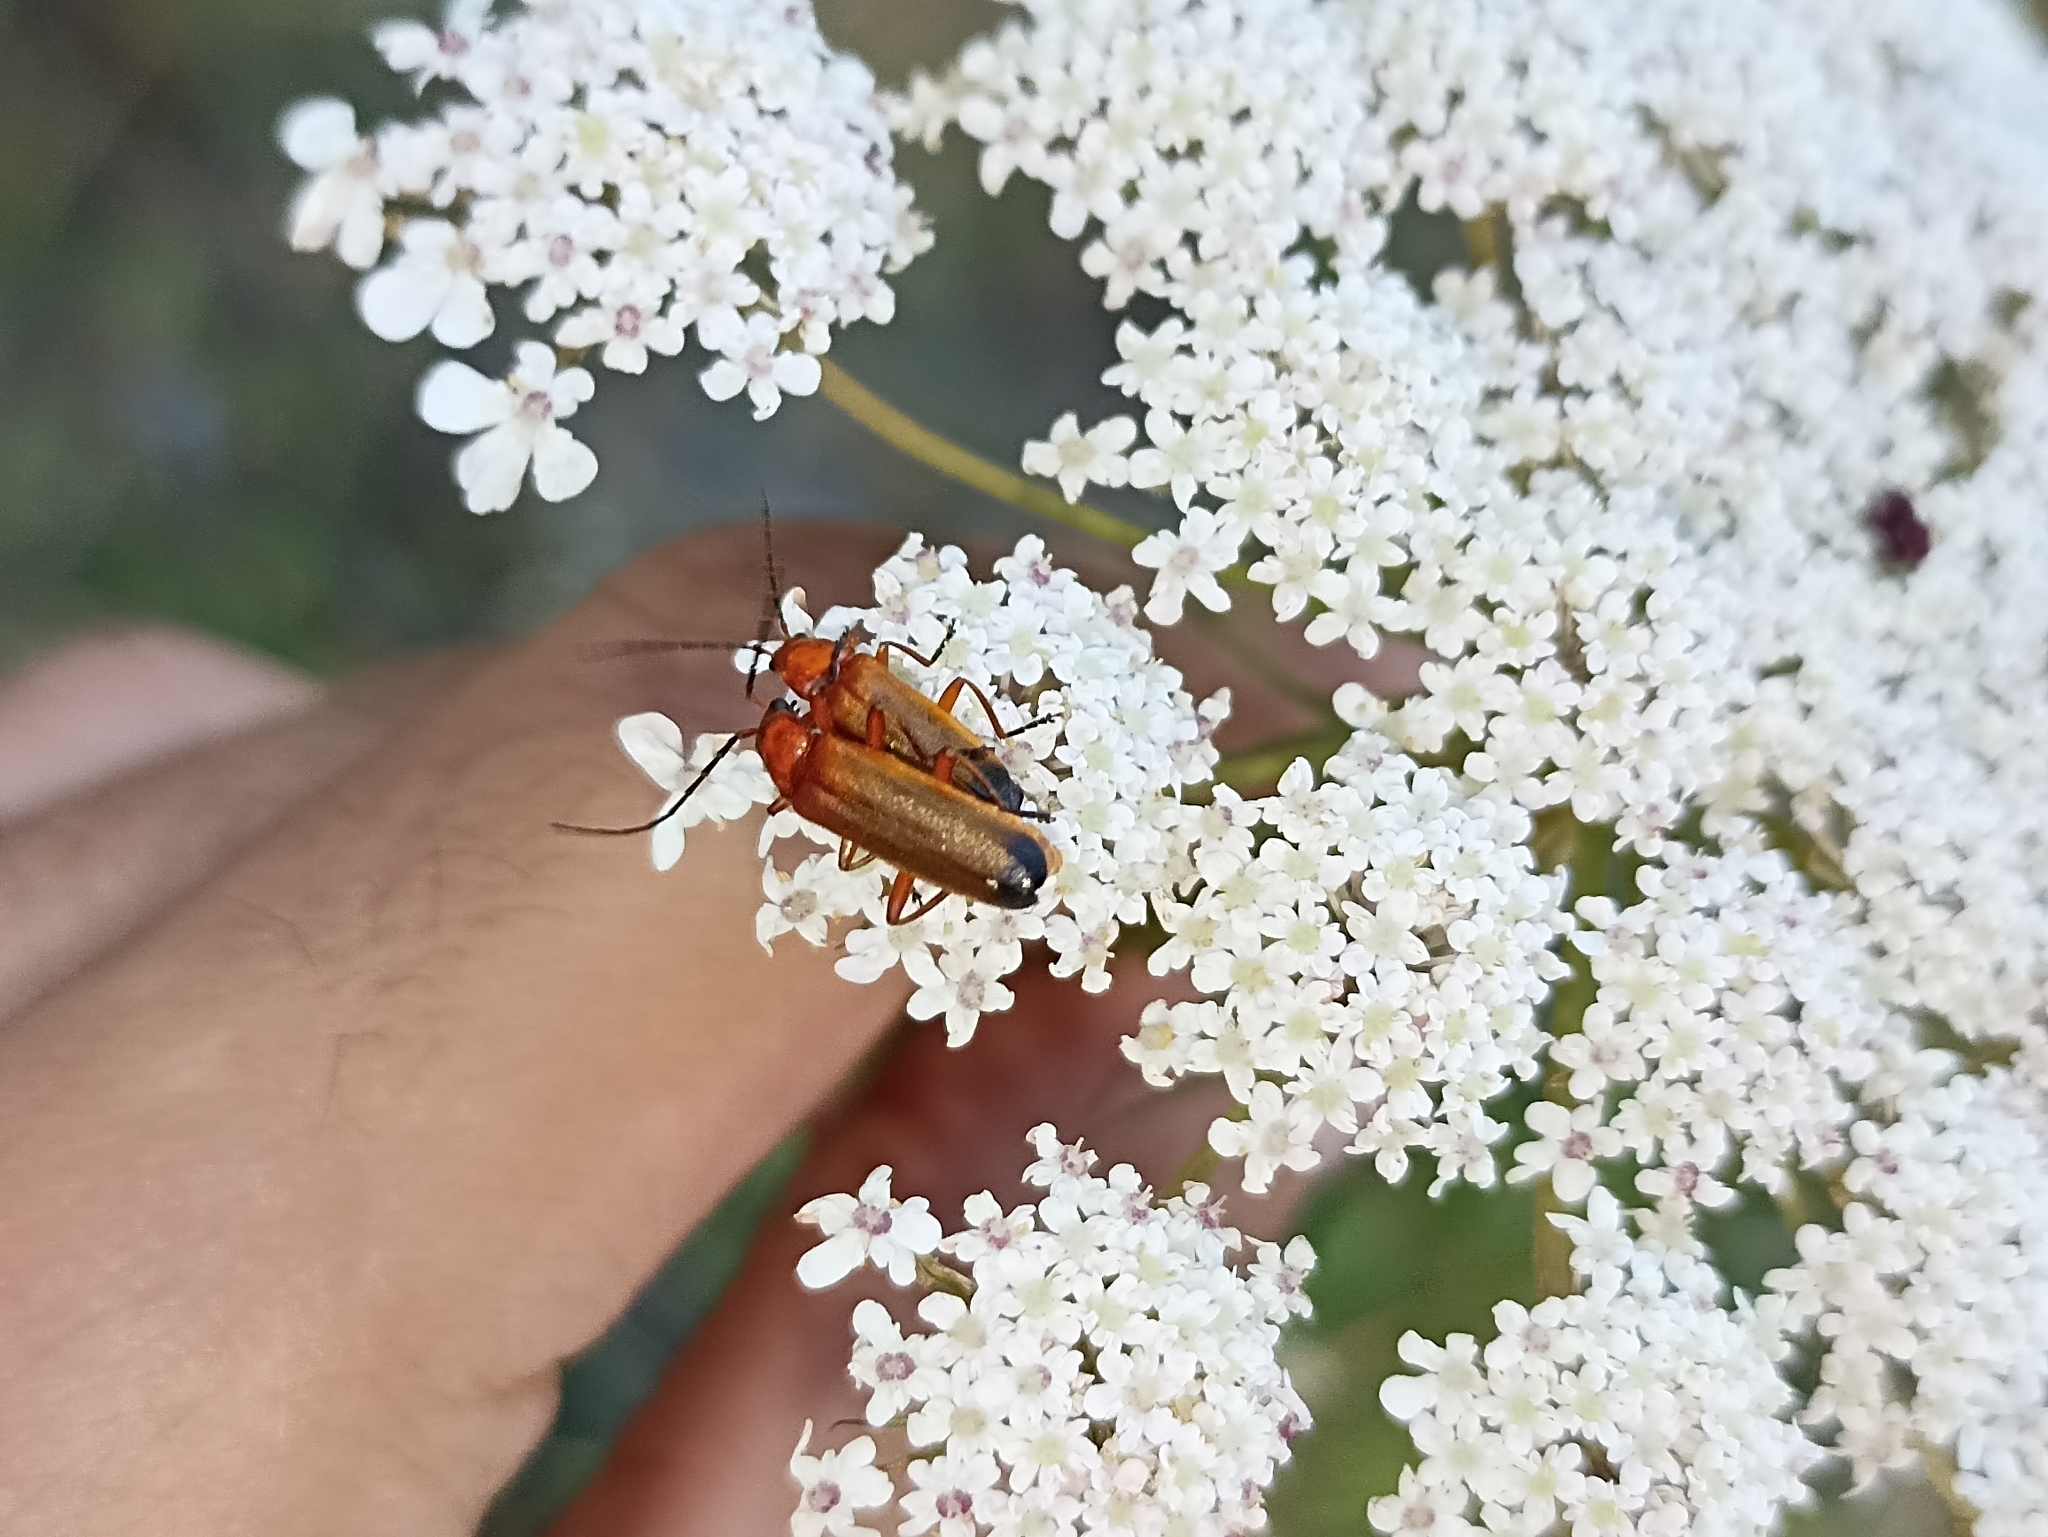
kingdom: Animalia
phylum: Arthropoda
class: Insecta
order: Coleoptera
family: Cantharidae
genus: Rhagonycha
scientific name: Rhagonycha fulva
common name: Common red soldier beetle
